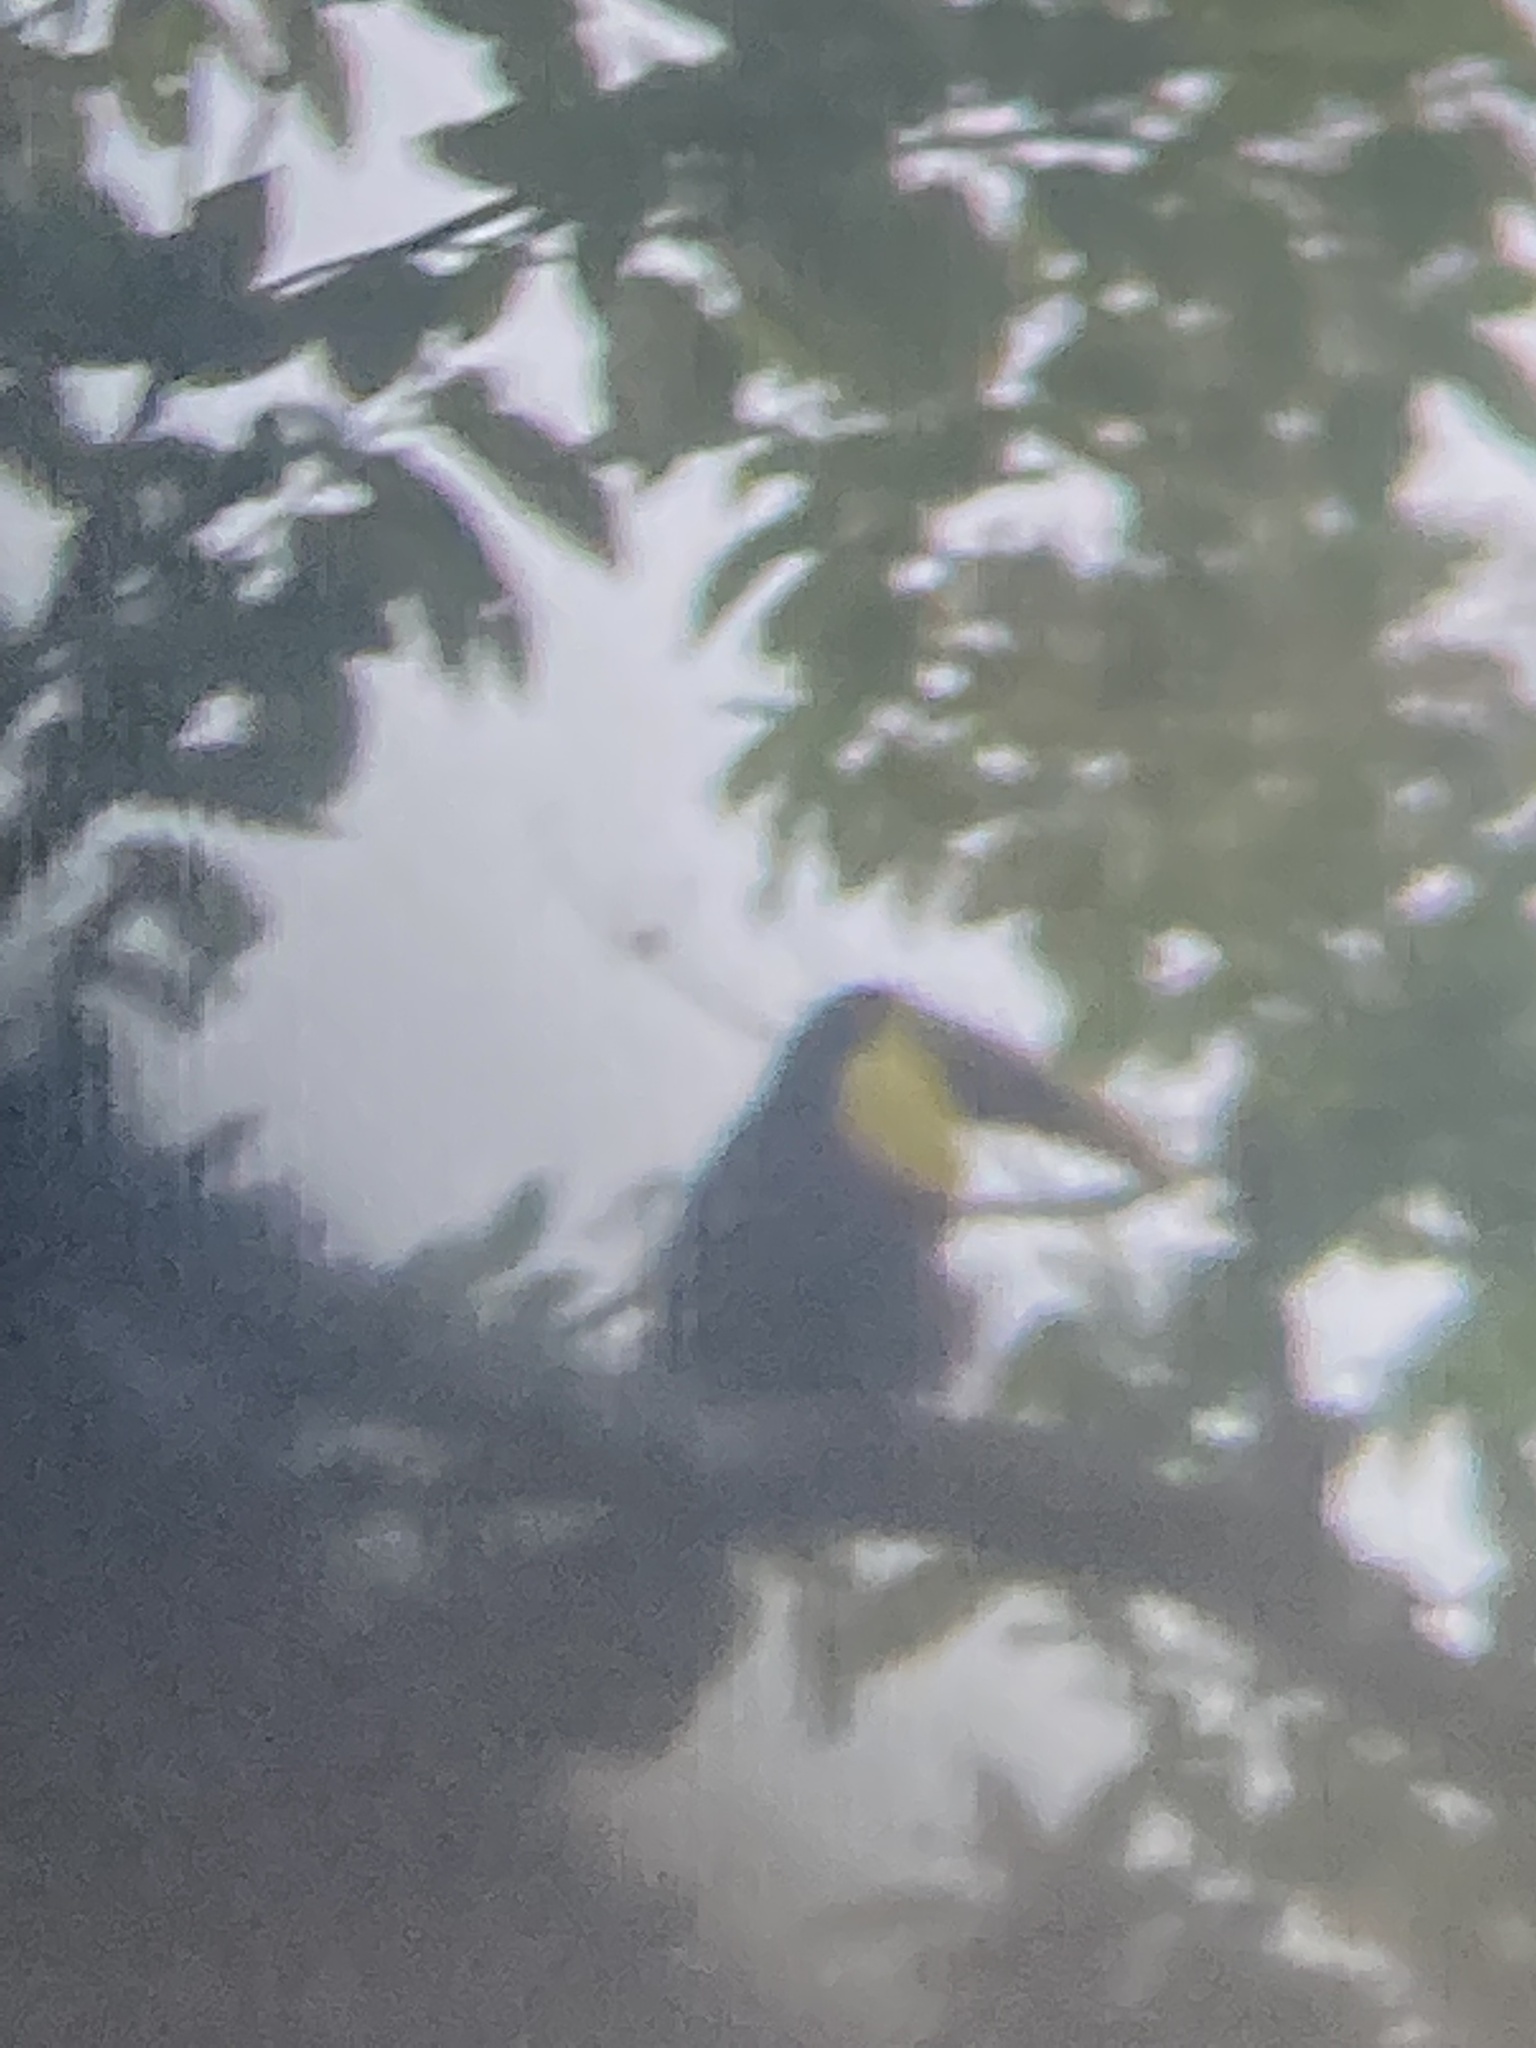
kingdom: Animalia
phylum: Chordata
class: Aves
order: Piciformes
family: Ramphastidae
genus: Ramphastos
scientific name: Ramphastos ambiguus
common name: Yellow-throated toucan
